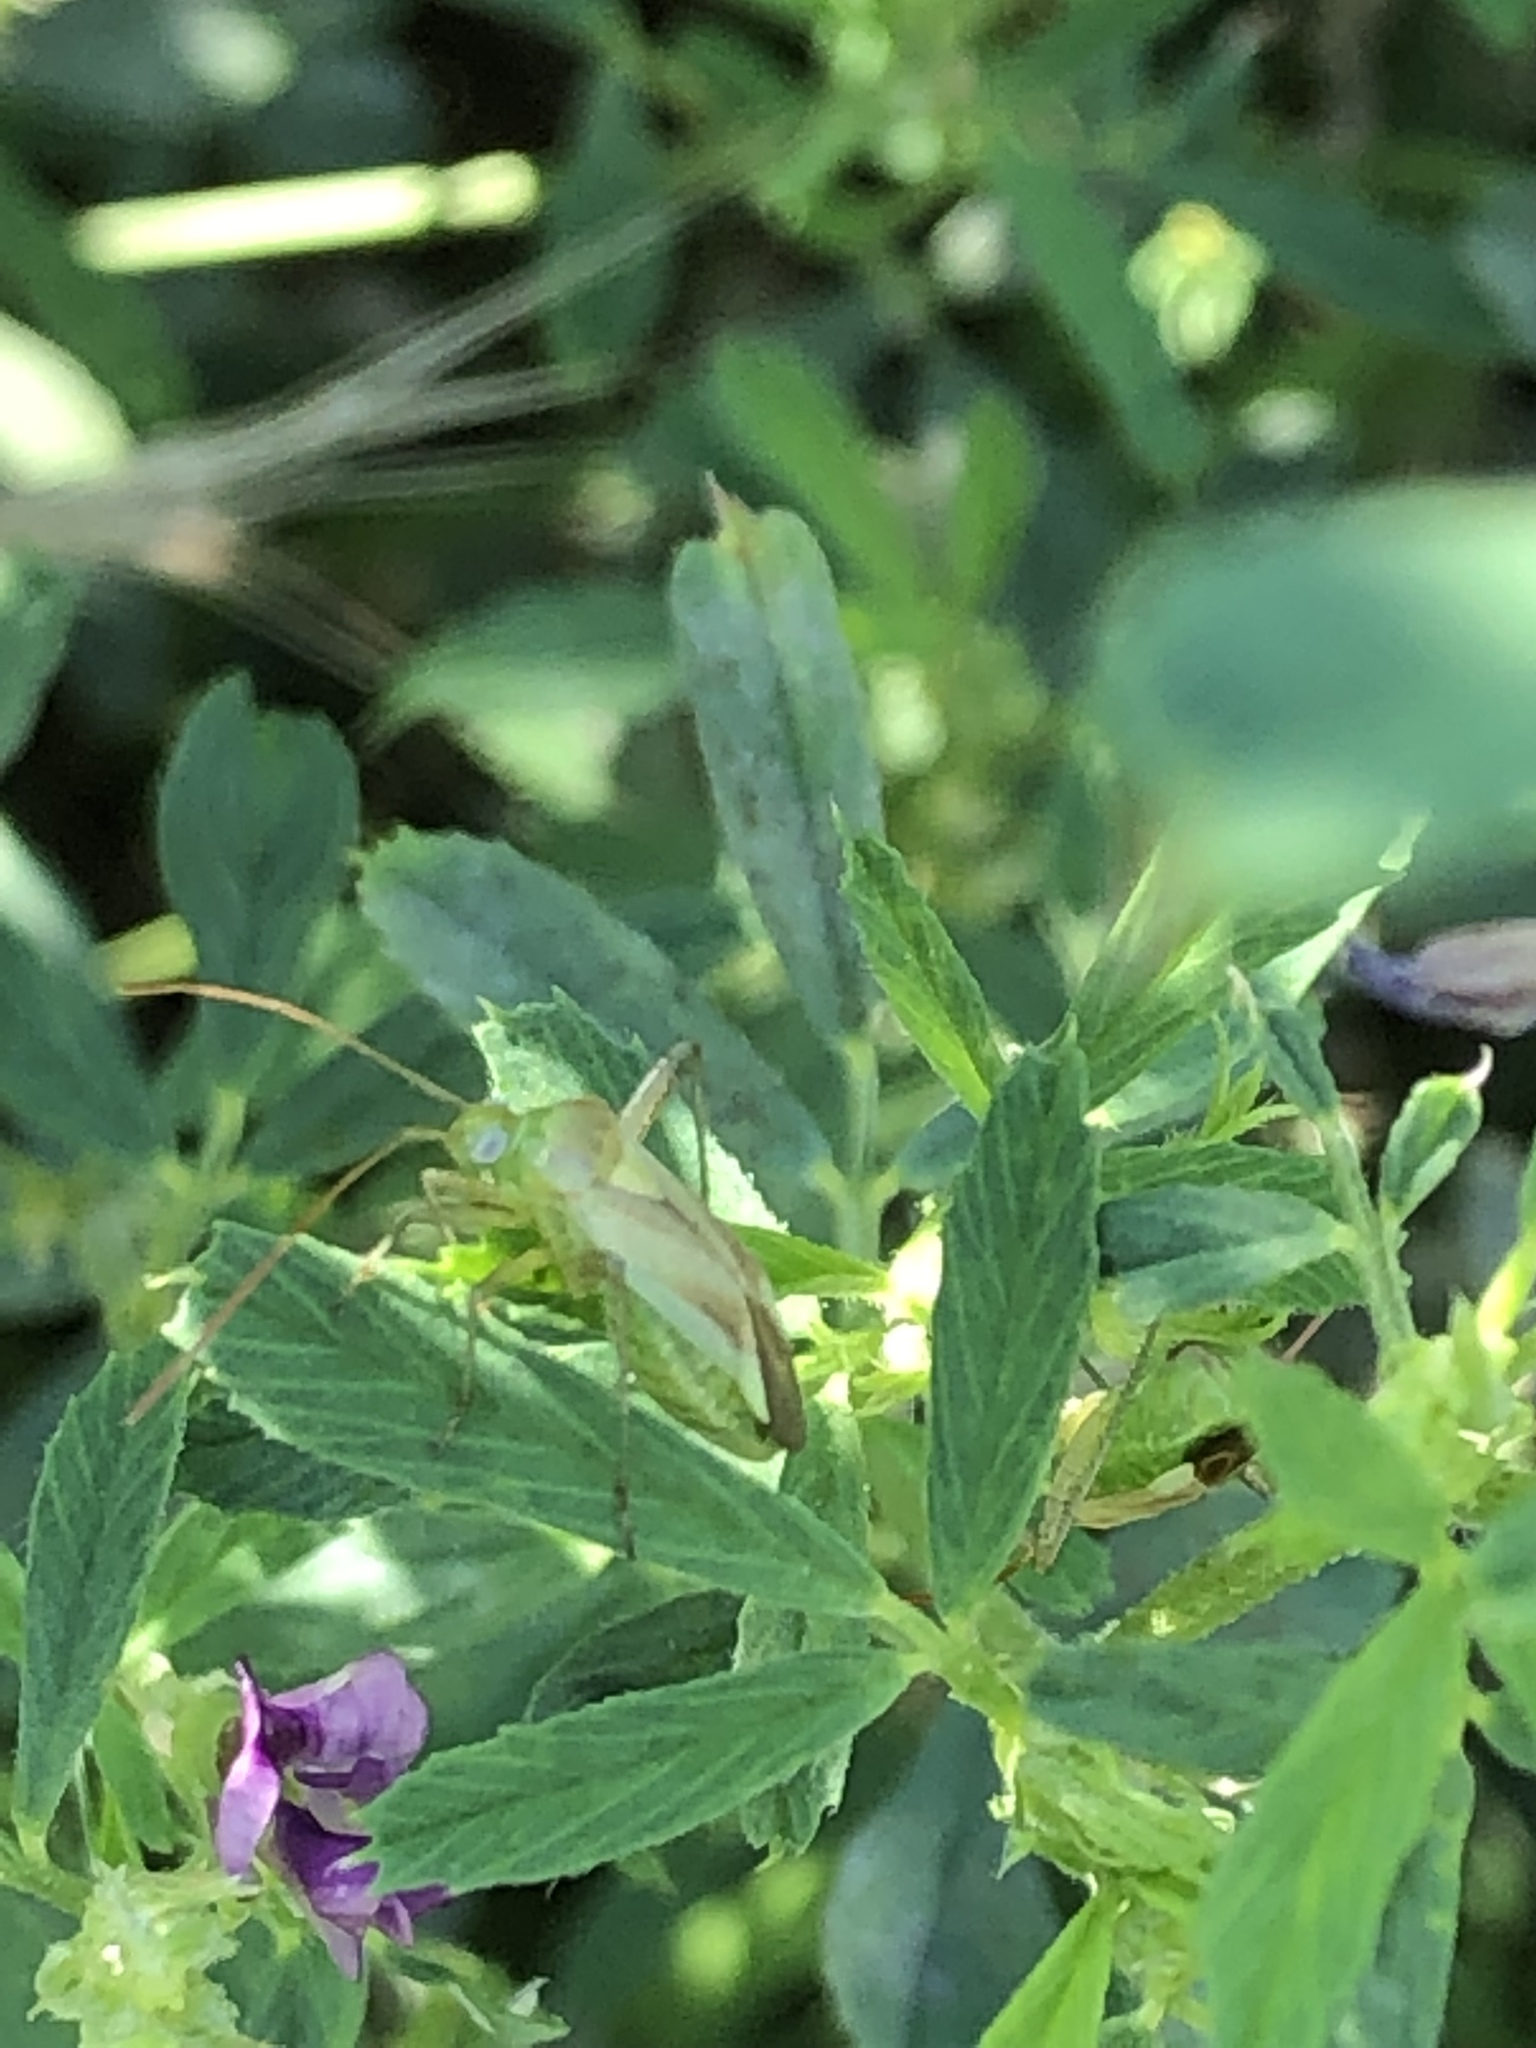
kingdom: Animalia
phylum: Arthropoda
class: Insecta
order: Hemiptera
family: Miridae
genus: Adelphocoris
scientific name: Adelphocoris lineolatus
